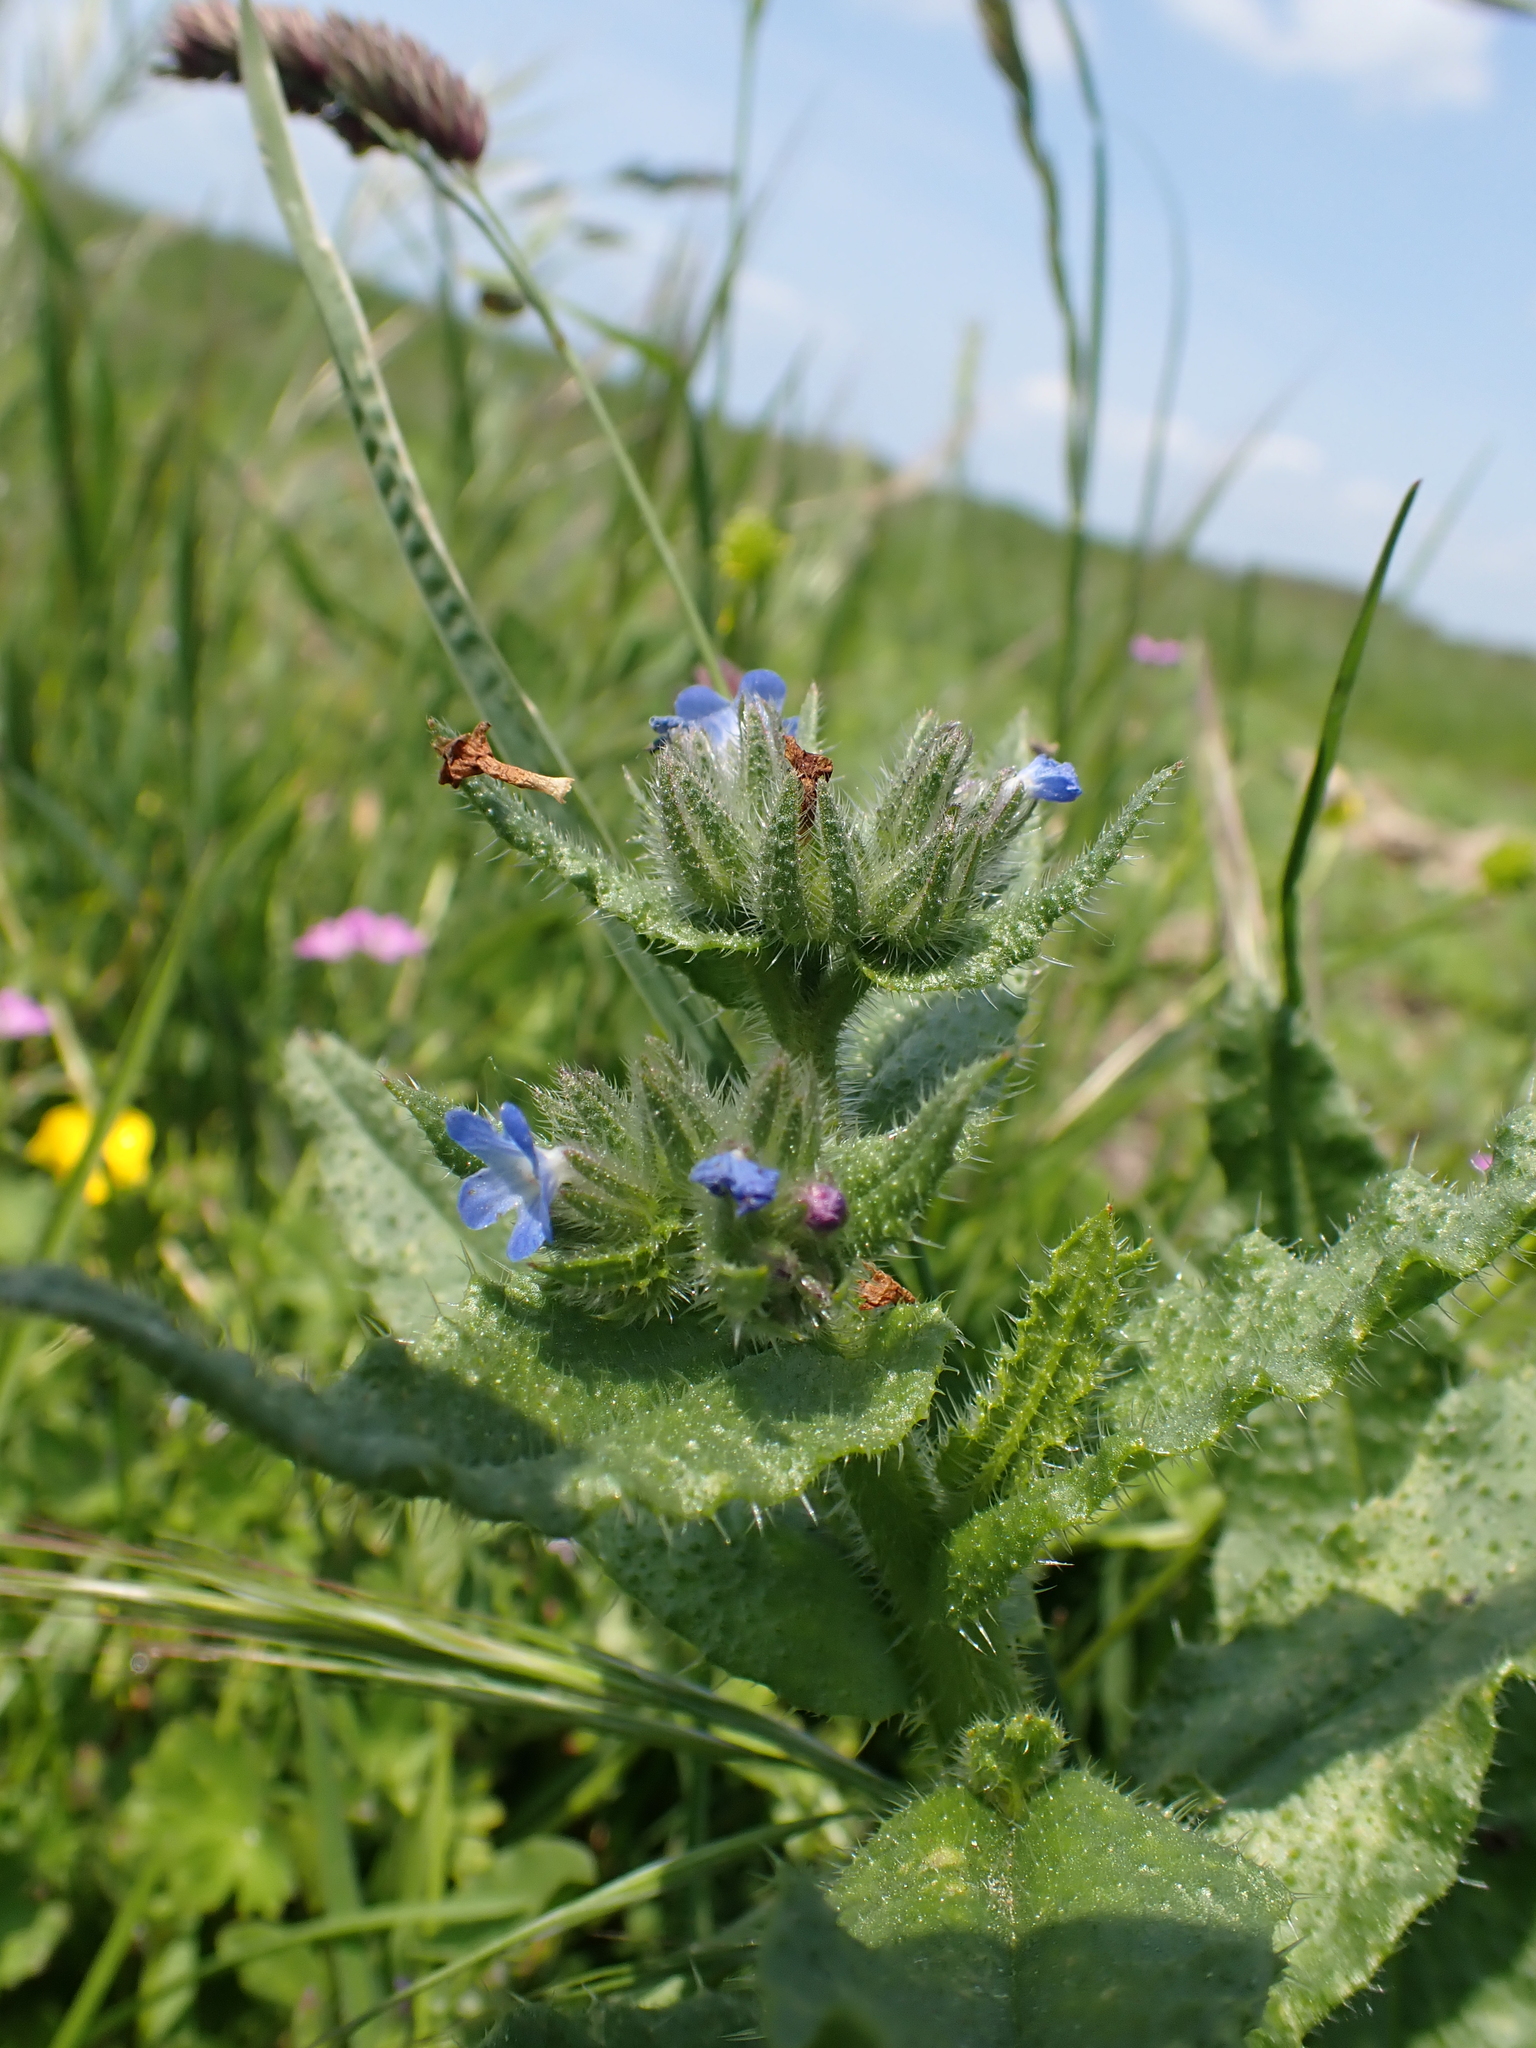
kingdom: Plantae
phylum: Tracheophyta
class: Magnoliopsida
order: Boraginales
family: Boraginaceae
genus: Lycopsis
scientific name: Lycopsis arvensis
